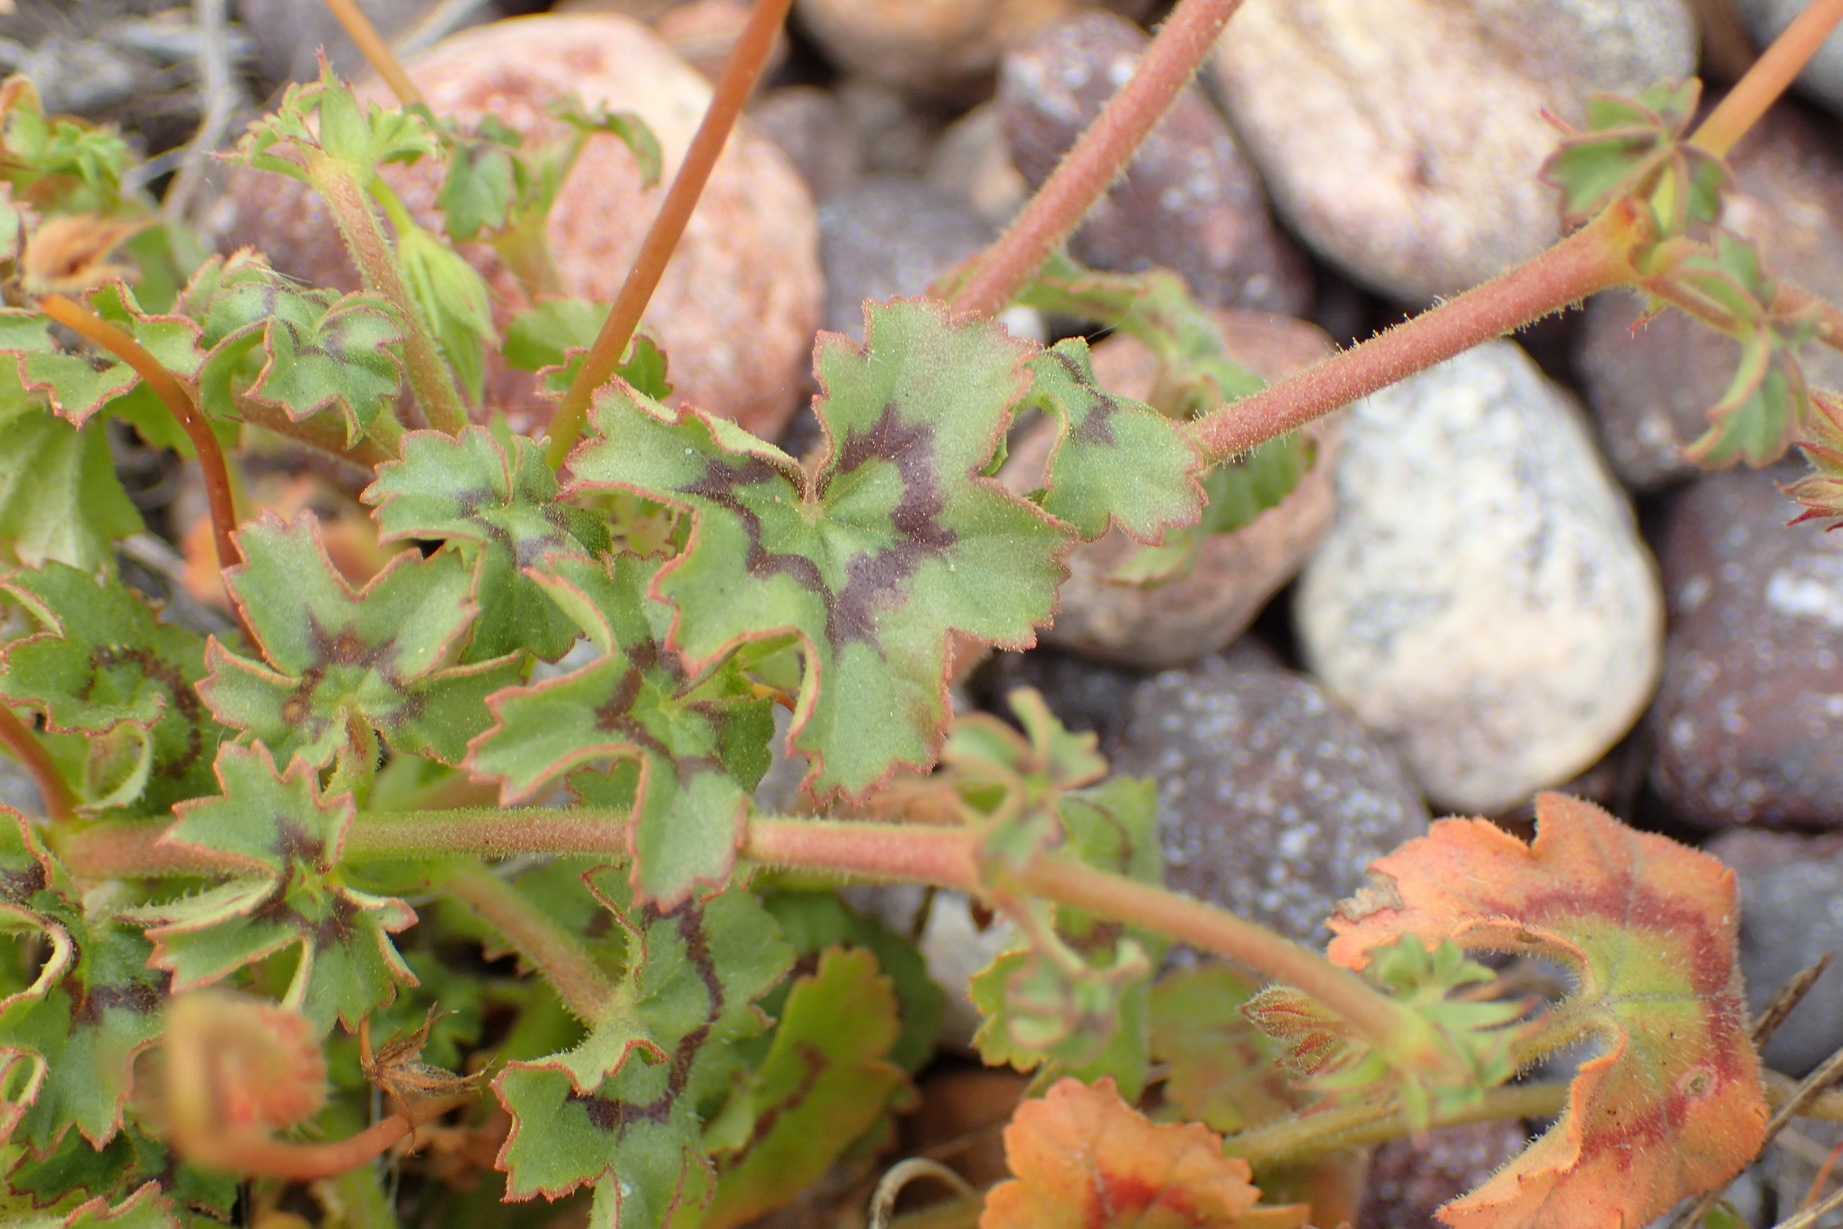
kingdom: Plantae
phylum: Tracheophyta
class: Magnoliopsida
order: Geraniales
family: Geraniaceae
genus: Pelargonium
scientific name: Pelargonium elongatum
